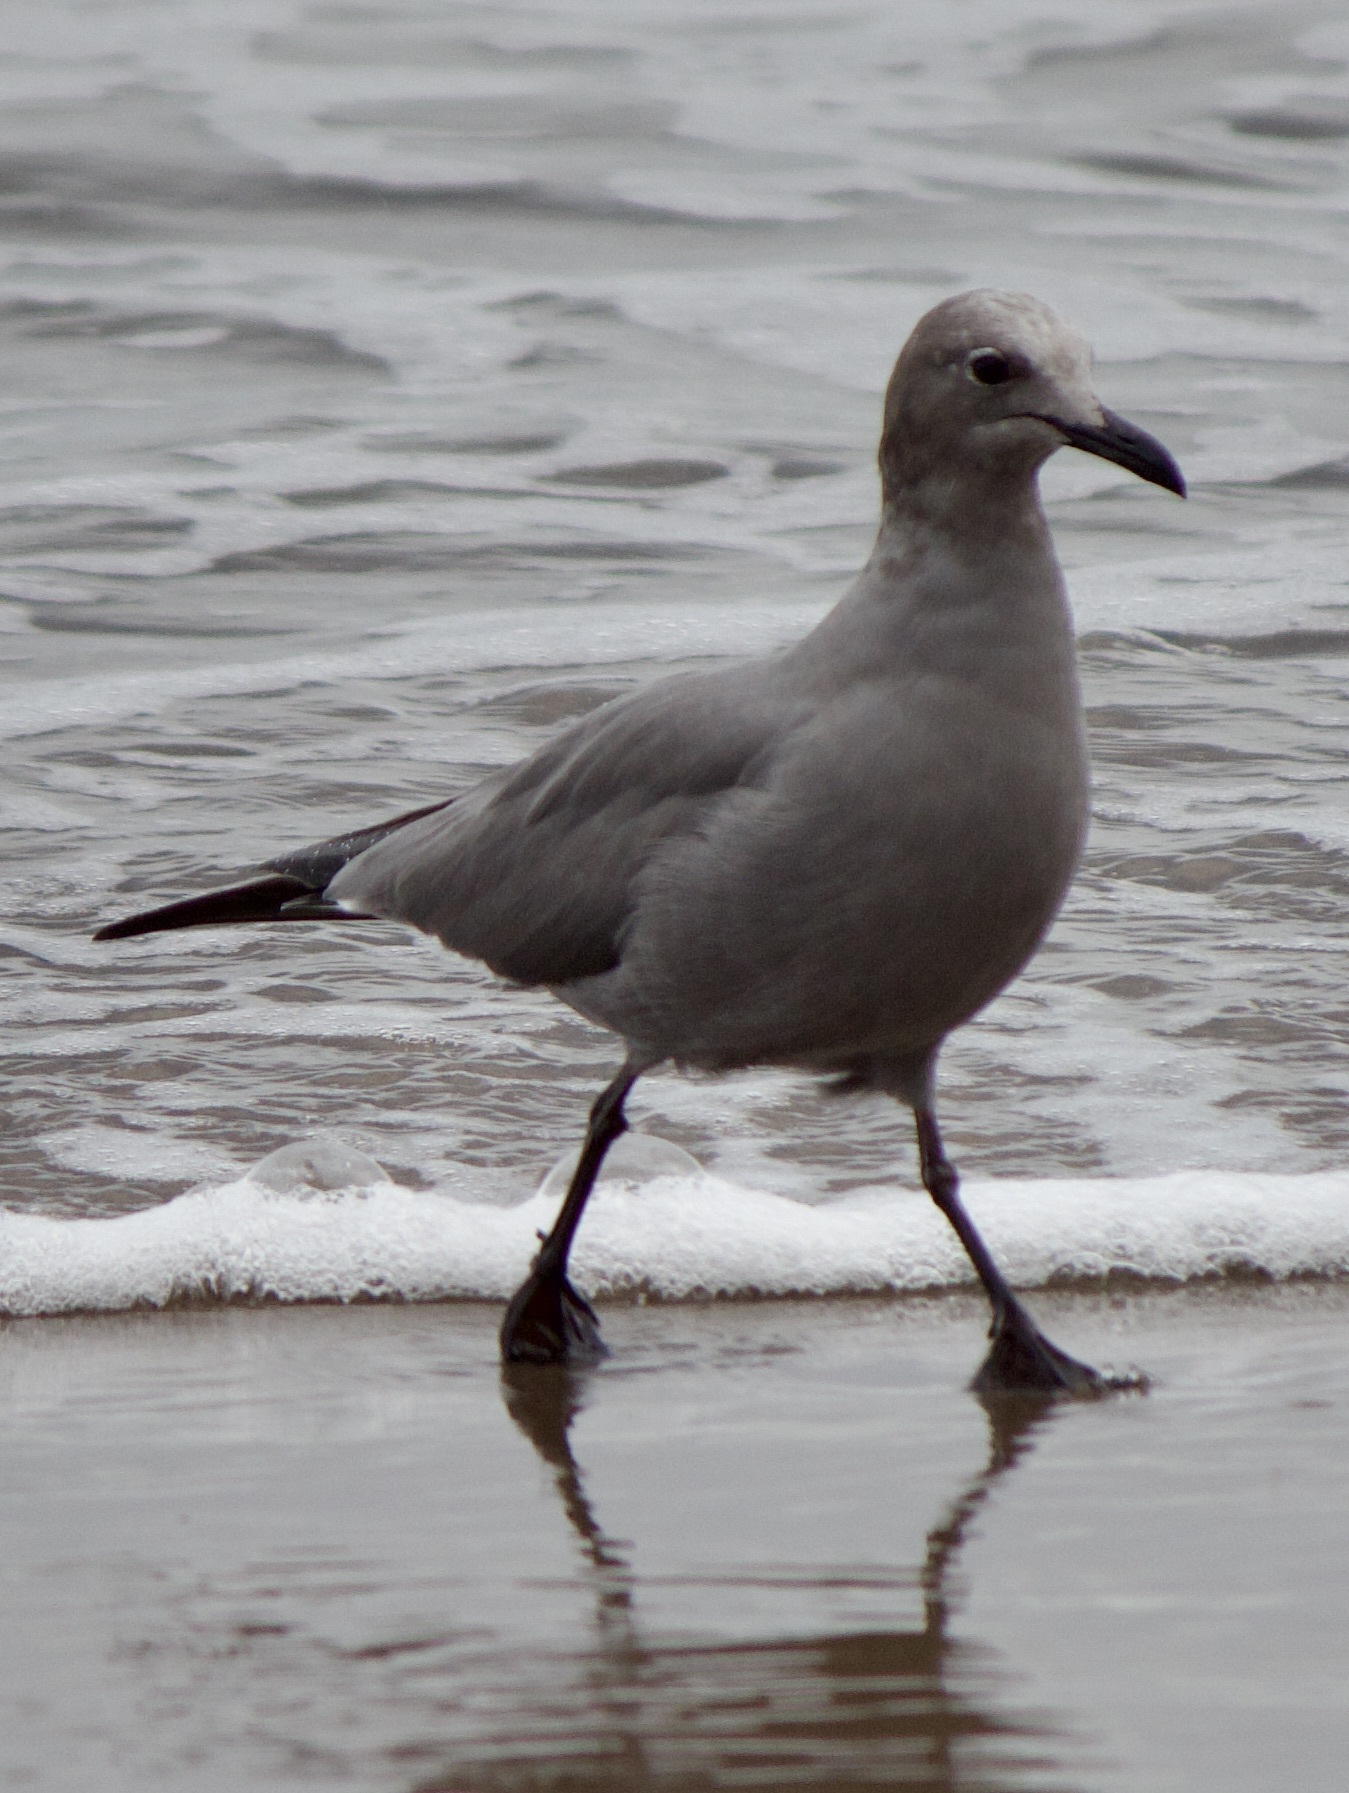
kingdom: Animalia
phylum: Chordata
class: Aves
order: Charadriiformes
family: Laridae
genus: Leucophaeus
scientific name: Leucophaeus modestus
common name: Gray gull
